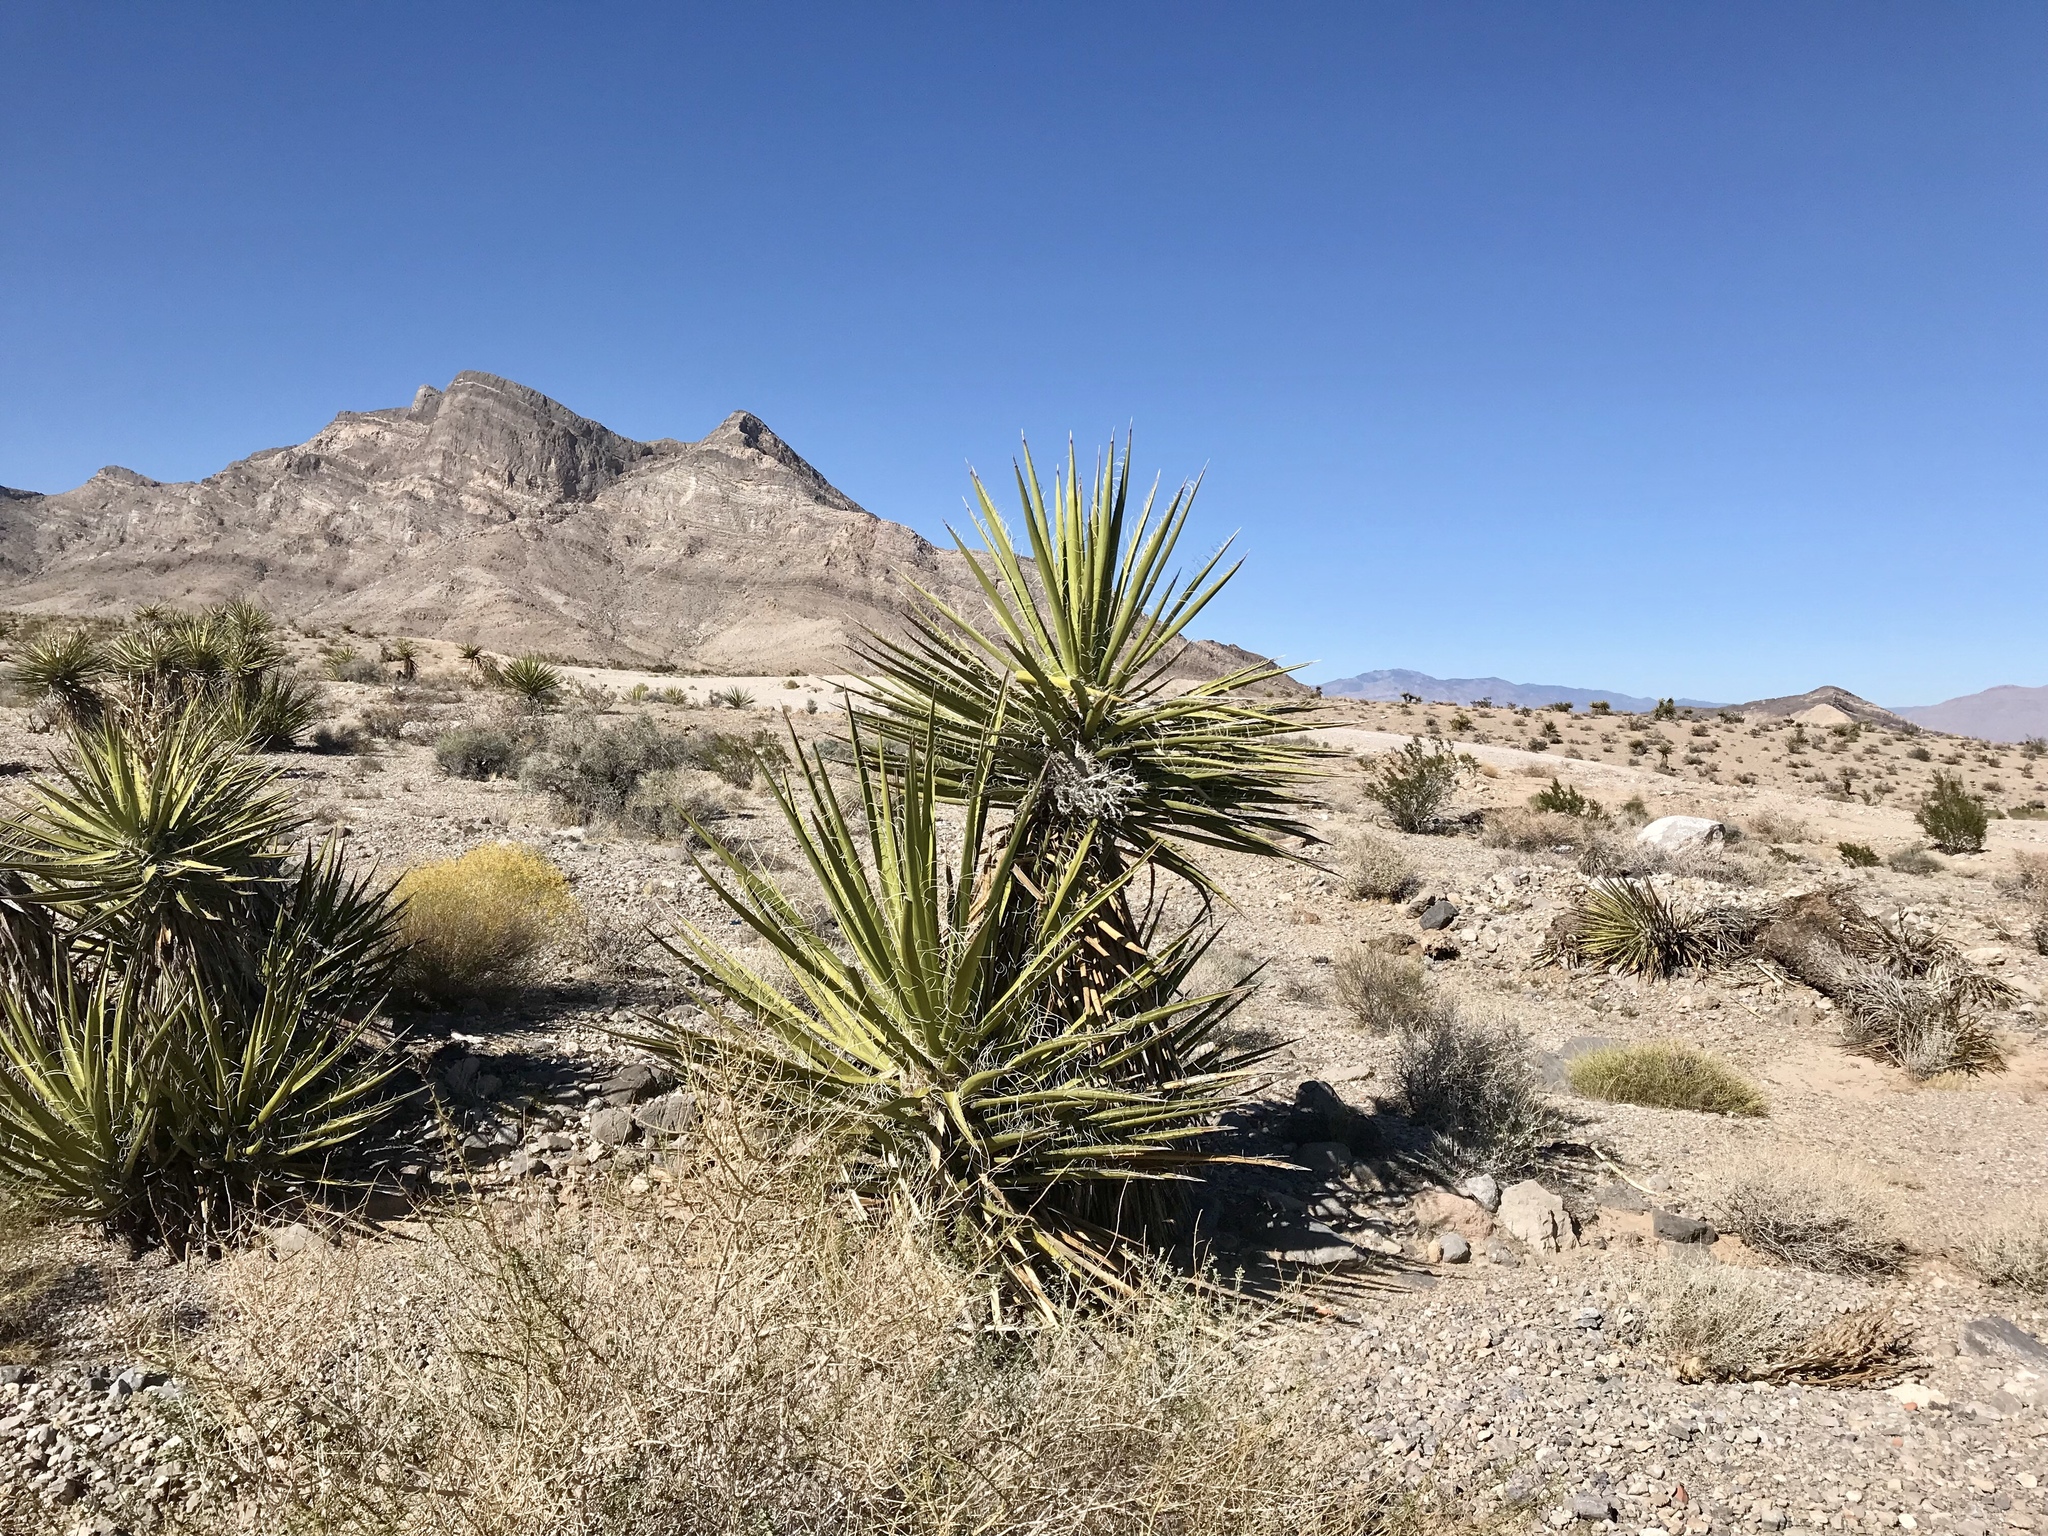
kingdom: Plantae
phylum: Tracheophyta
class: Liliopsida
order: Asparagales
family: Asparagaceae
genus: Yucca
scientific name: Yucca schidigera
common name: Mojave yucca
